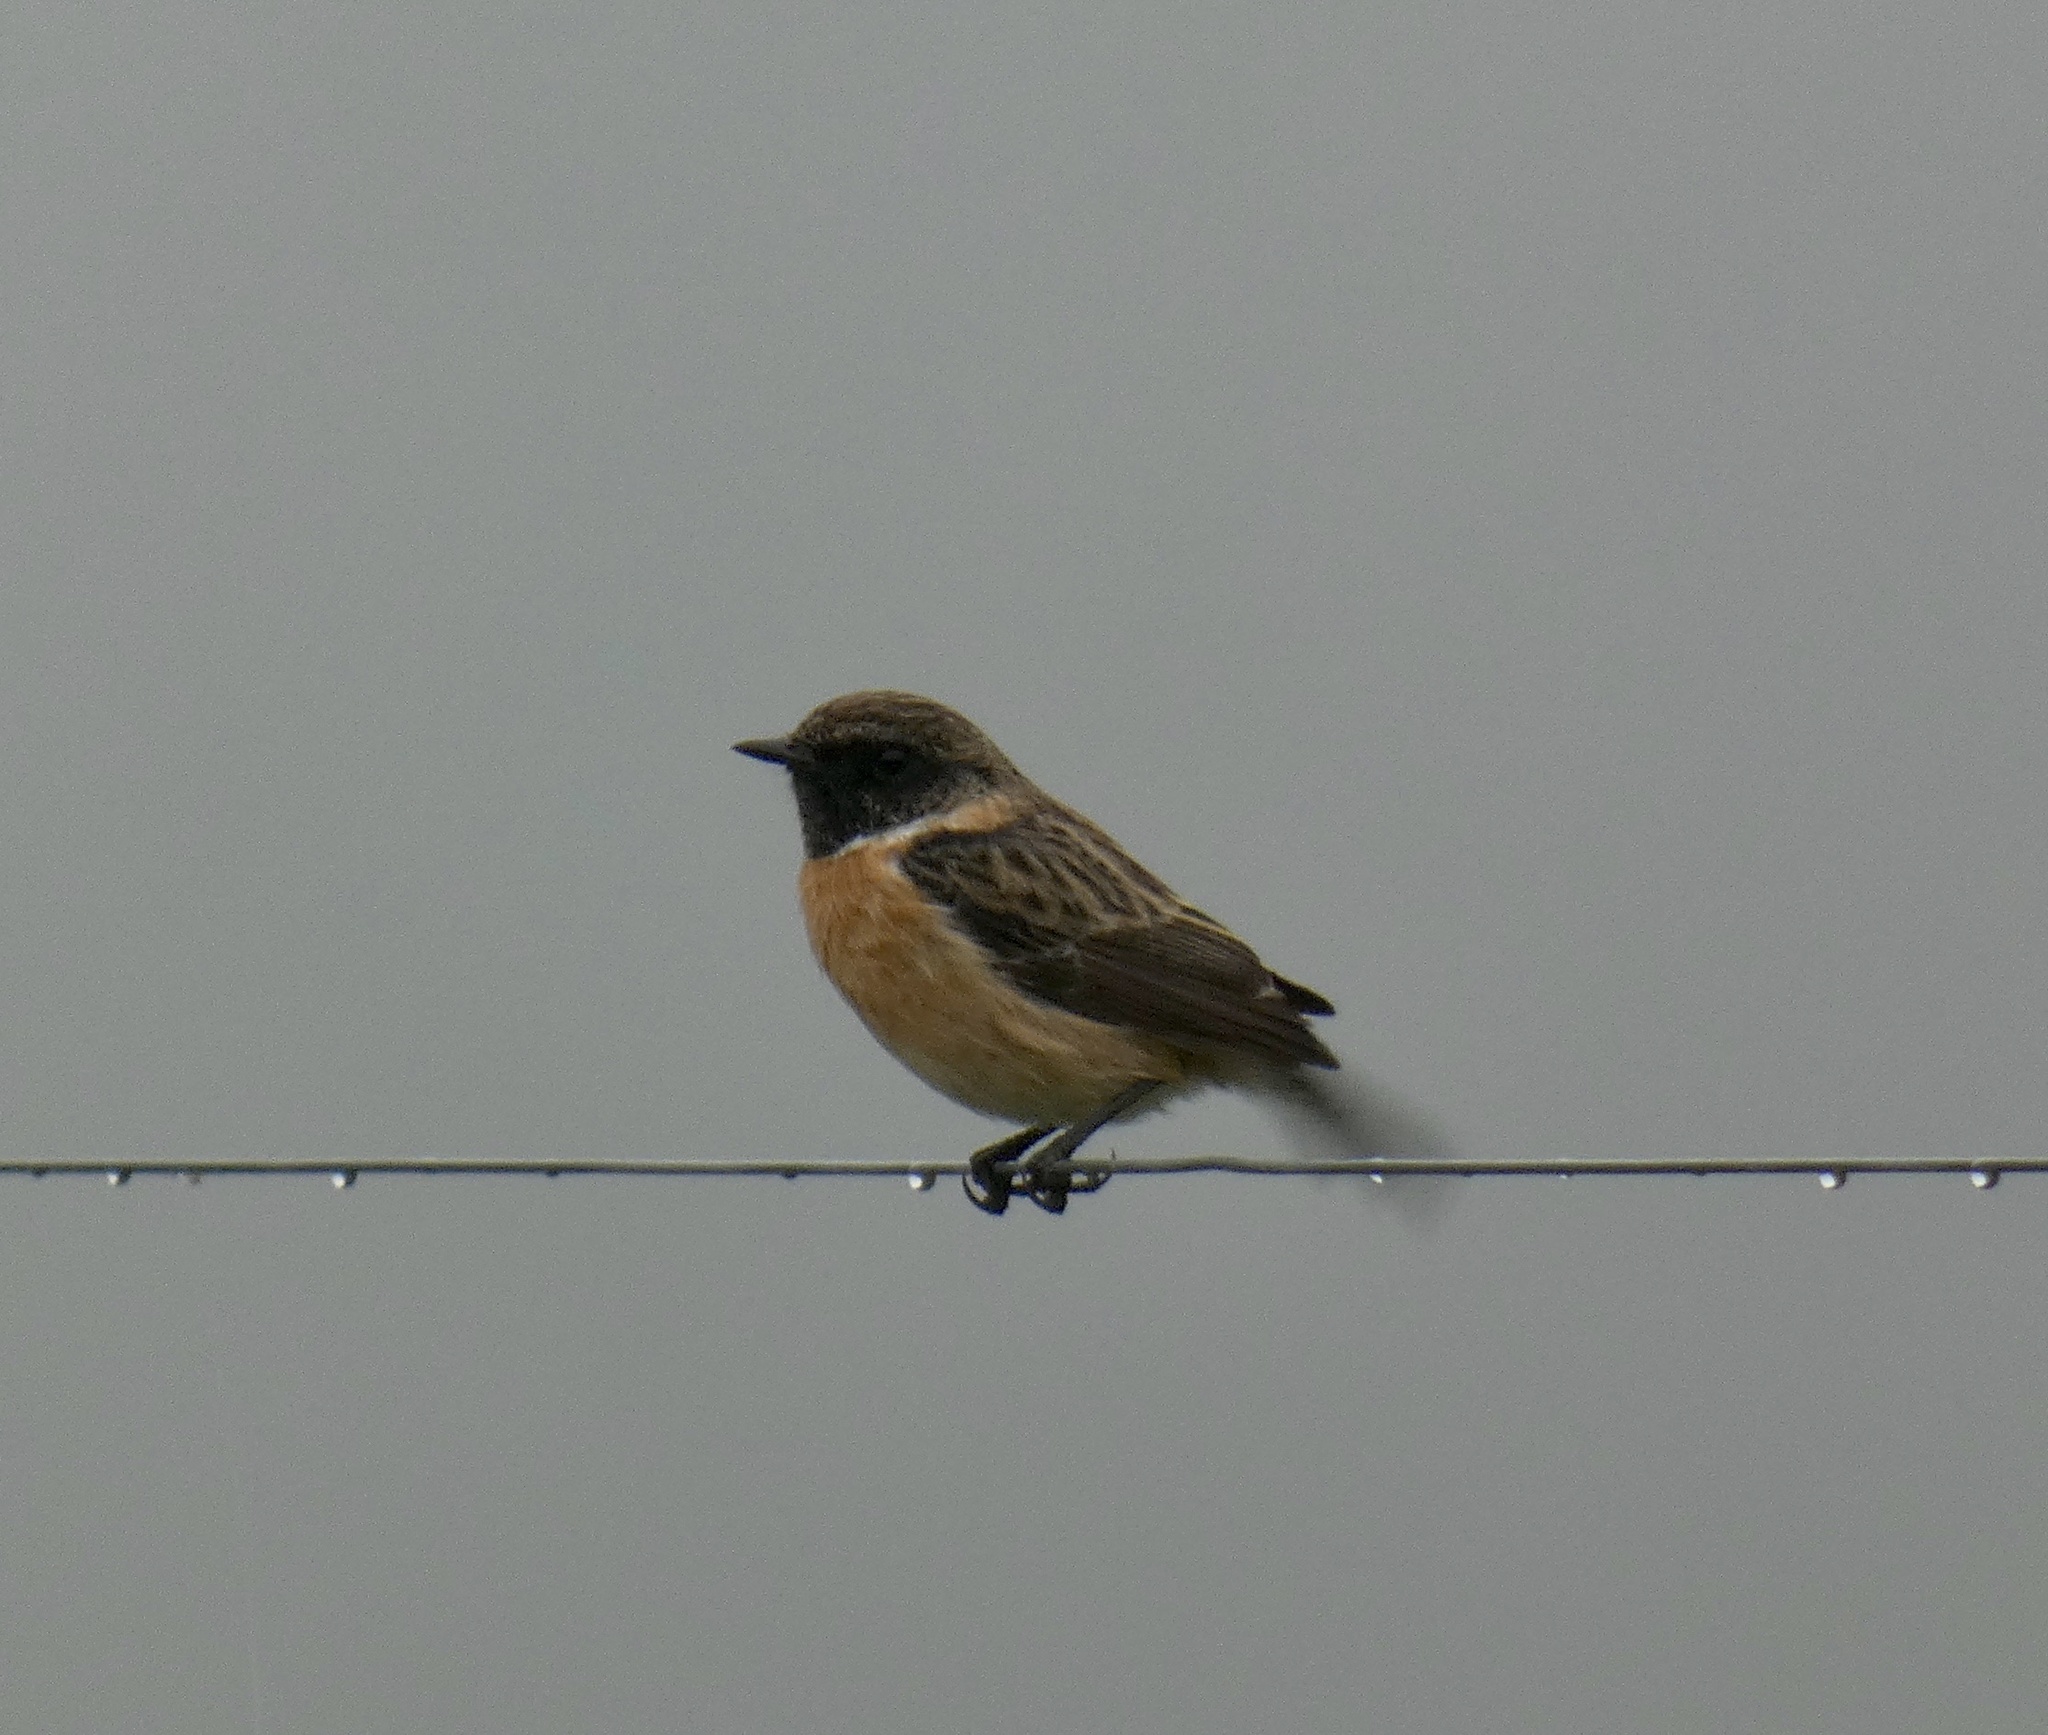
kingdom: Animalia
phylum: Chordata
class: Aves
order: Passeriformes
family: Muscicapidae
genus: Saxicola
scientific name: Saxicola rubicola
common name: European stonechat
